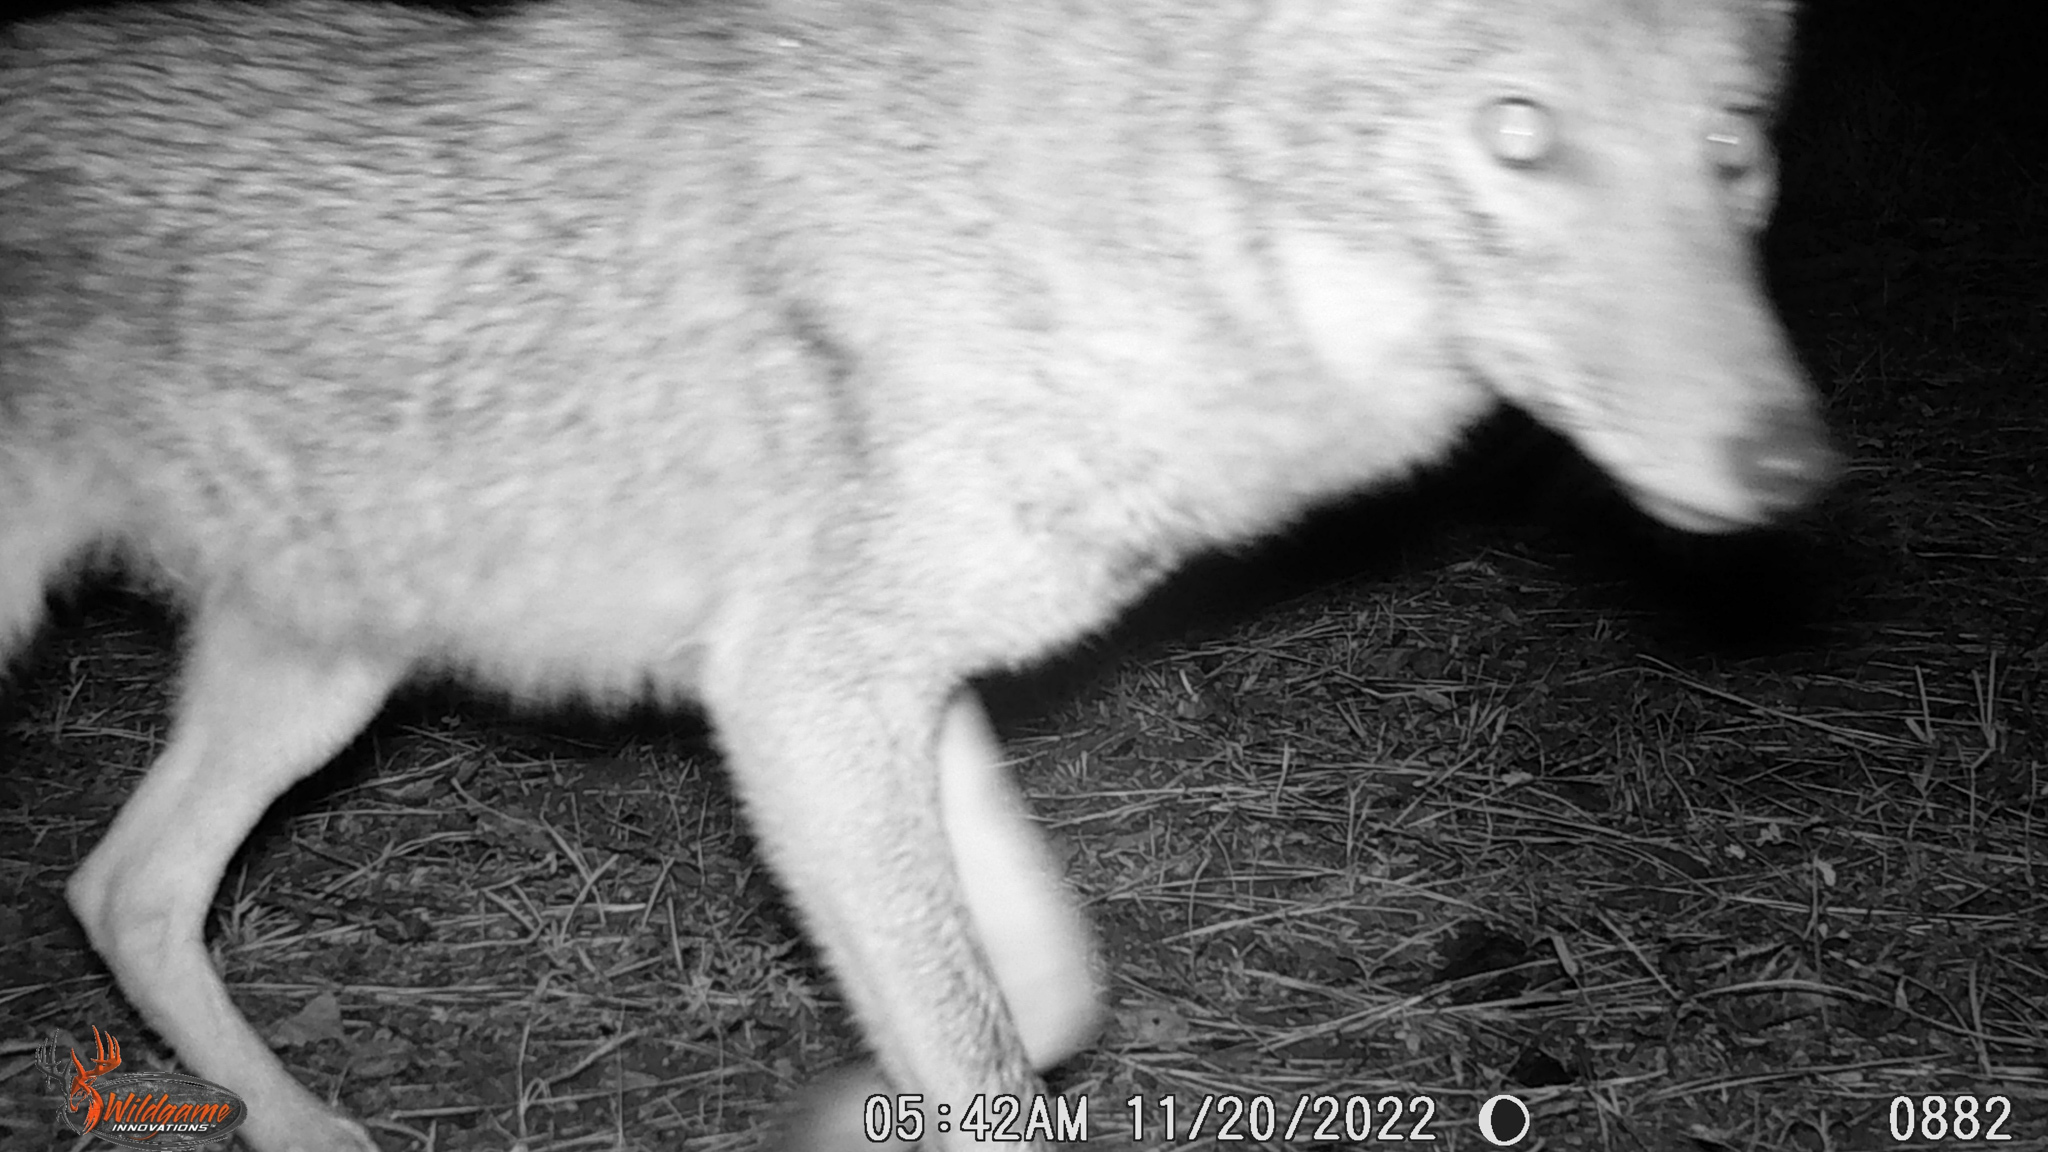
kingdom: Animalia
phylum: Chordata
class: Mammalia
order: Carnivora
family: Canidae
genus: Canis
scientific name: Canis latrans
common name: Coyote
